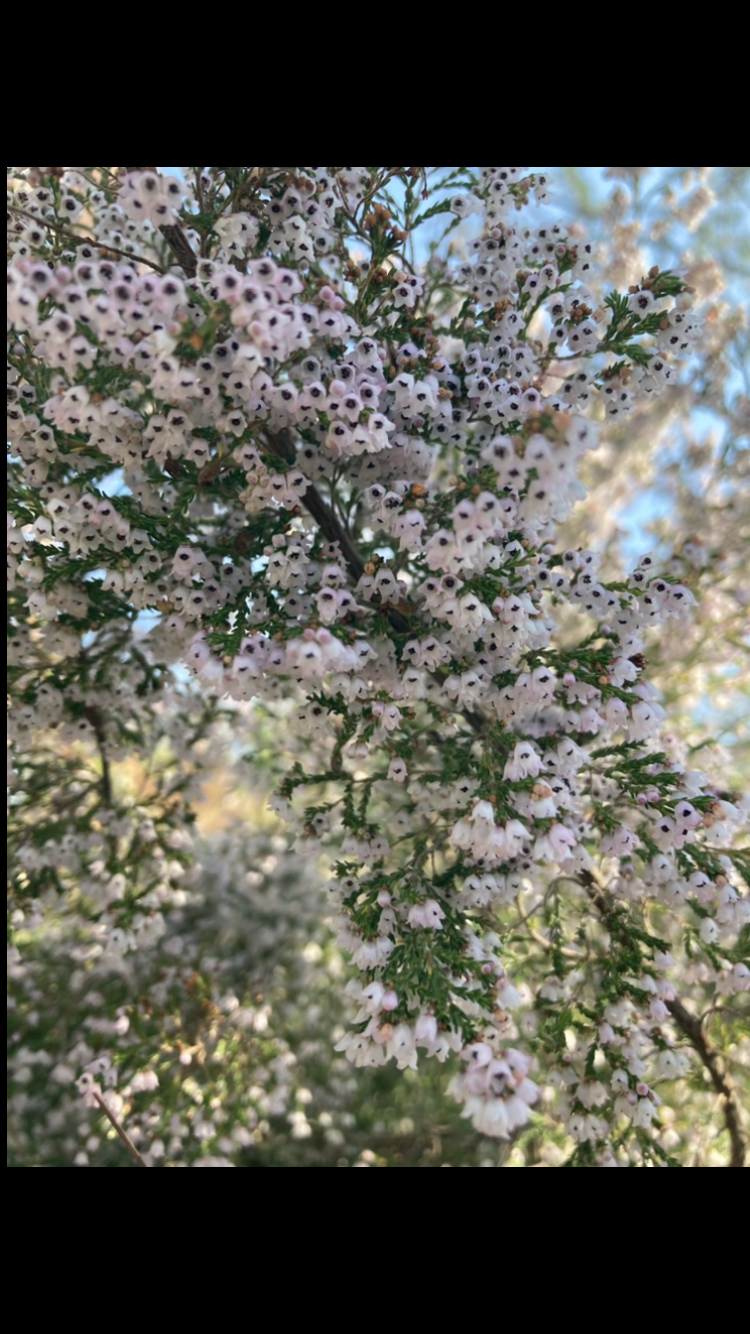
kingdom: Plantae
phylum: Tracheophyta
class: Magnoliopsida
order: Ericales
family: Ericaceae
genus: Erica
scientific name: Erica quadrangularis
